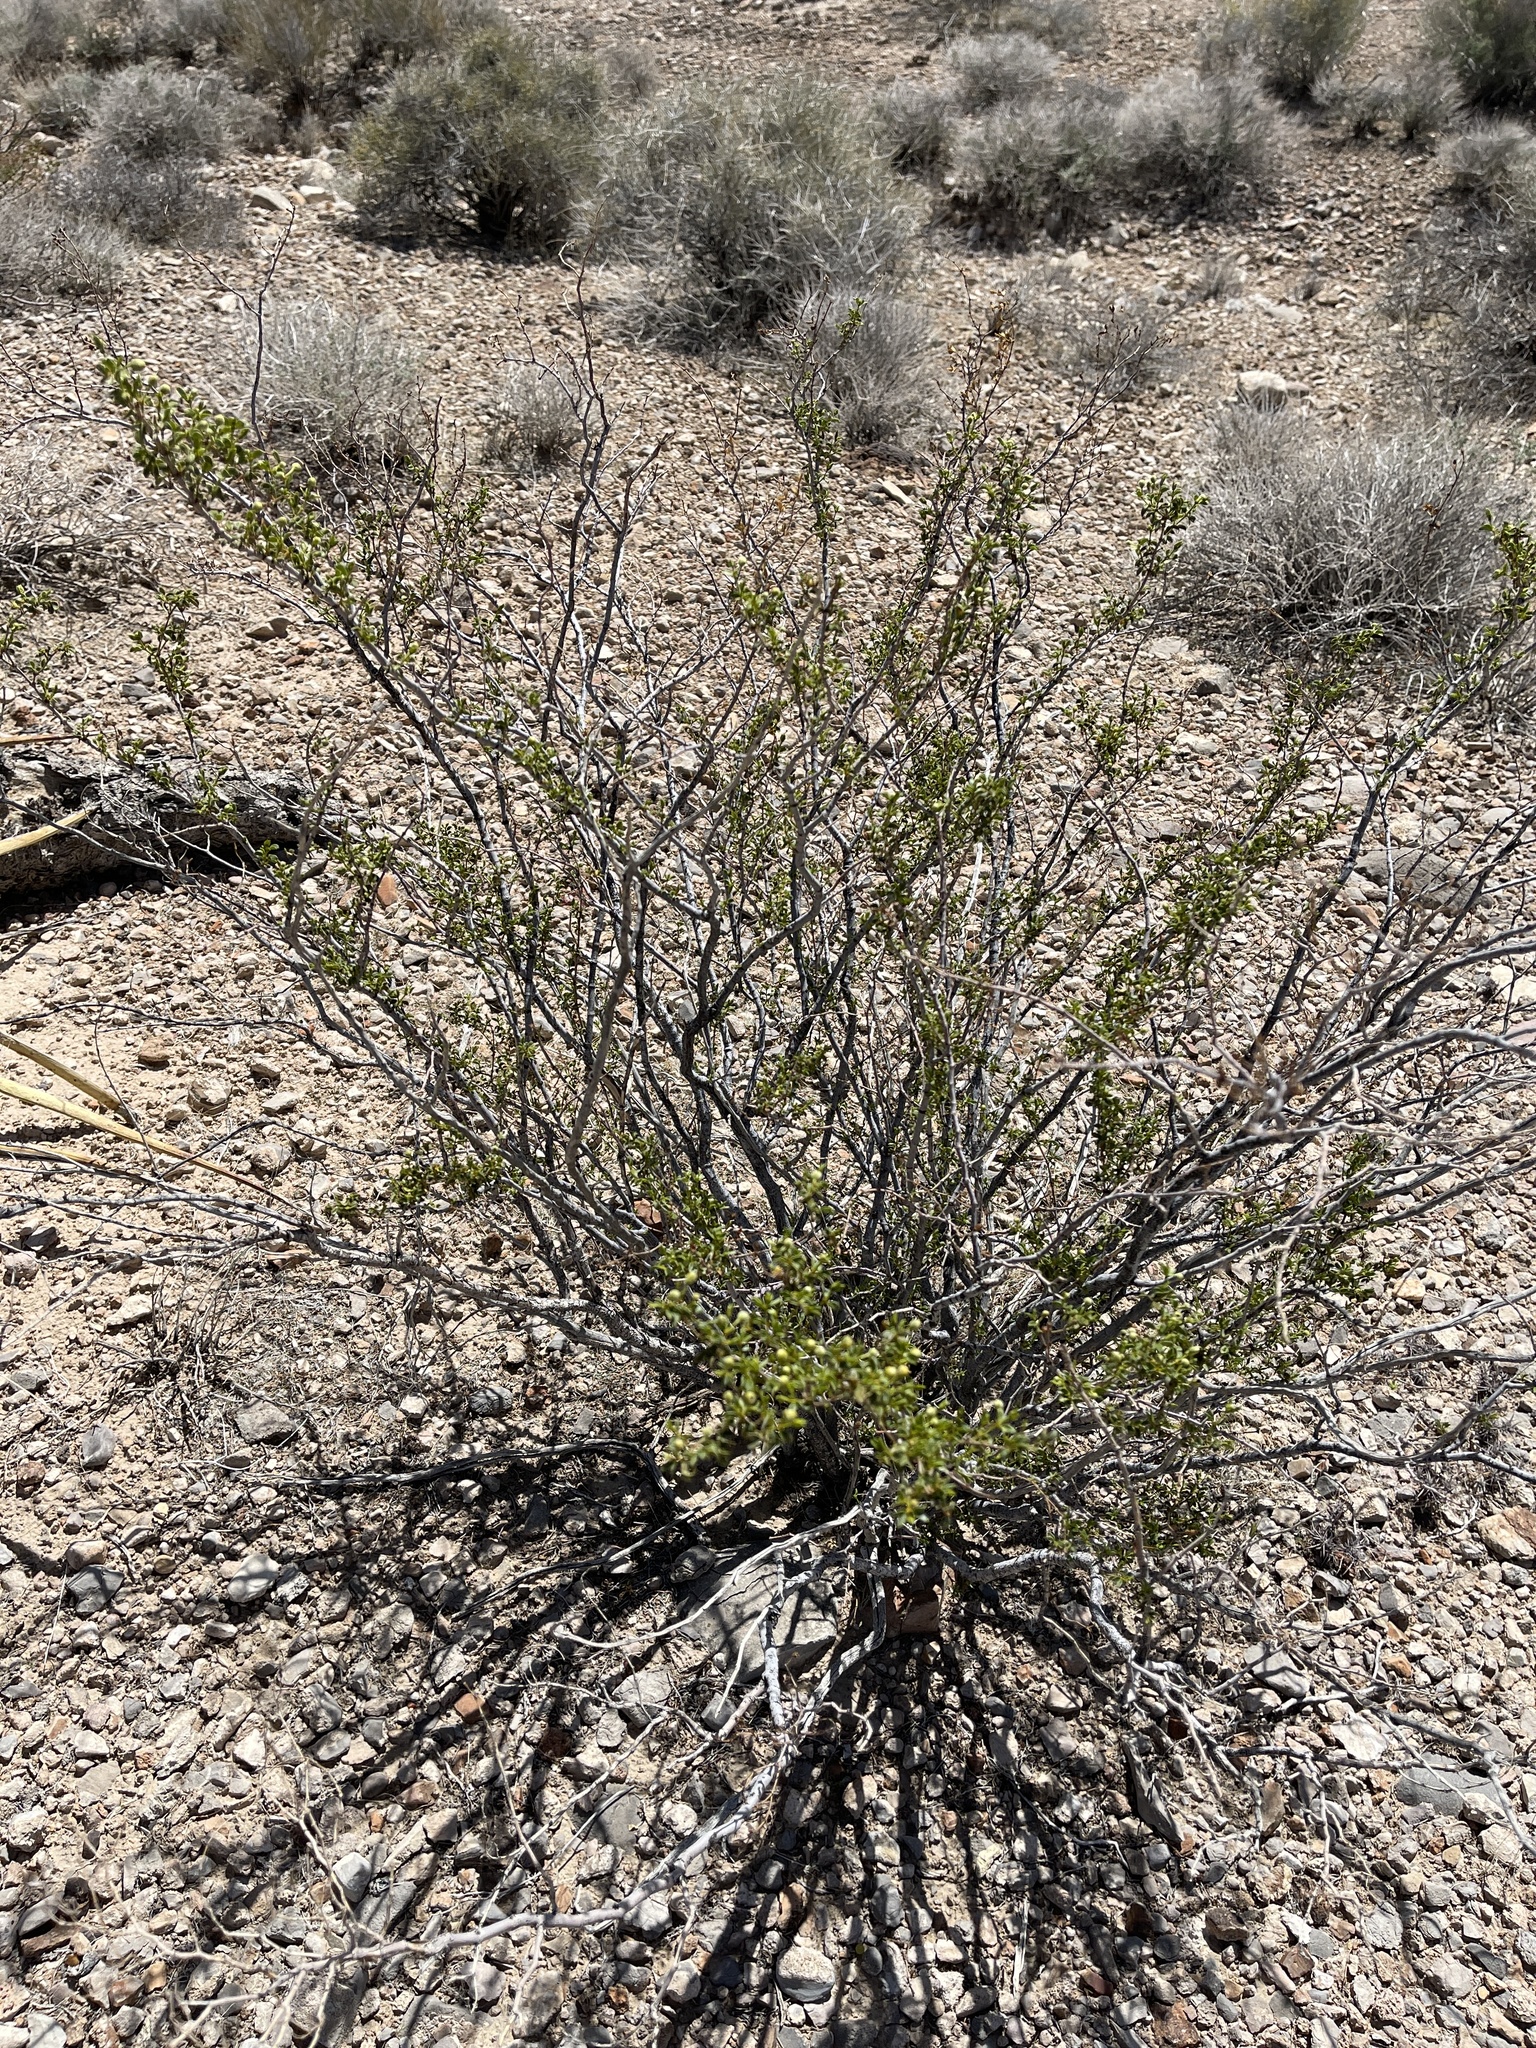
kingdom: Plantae
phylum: Tracheophyta
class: Magnoliopsida
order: Zygophyllales
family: Zygophyllaceae
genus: Larrea
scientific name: Larrea tridentata
